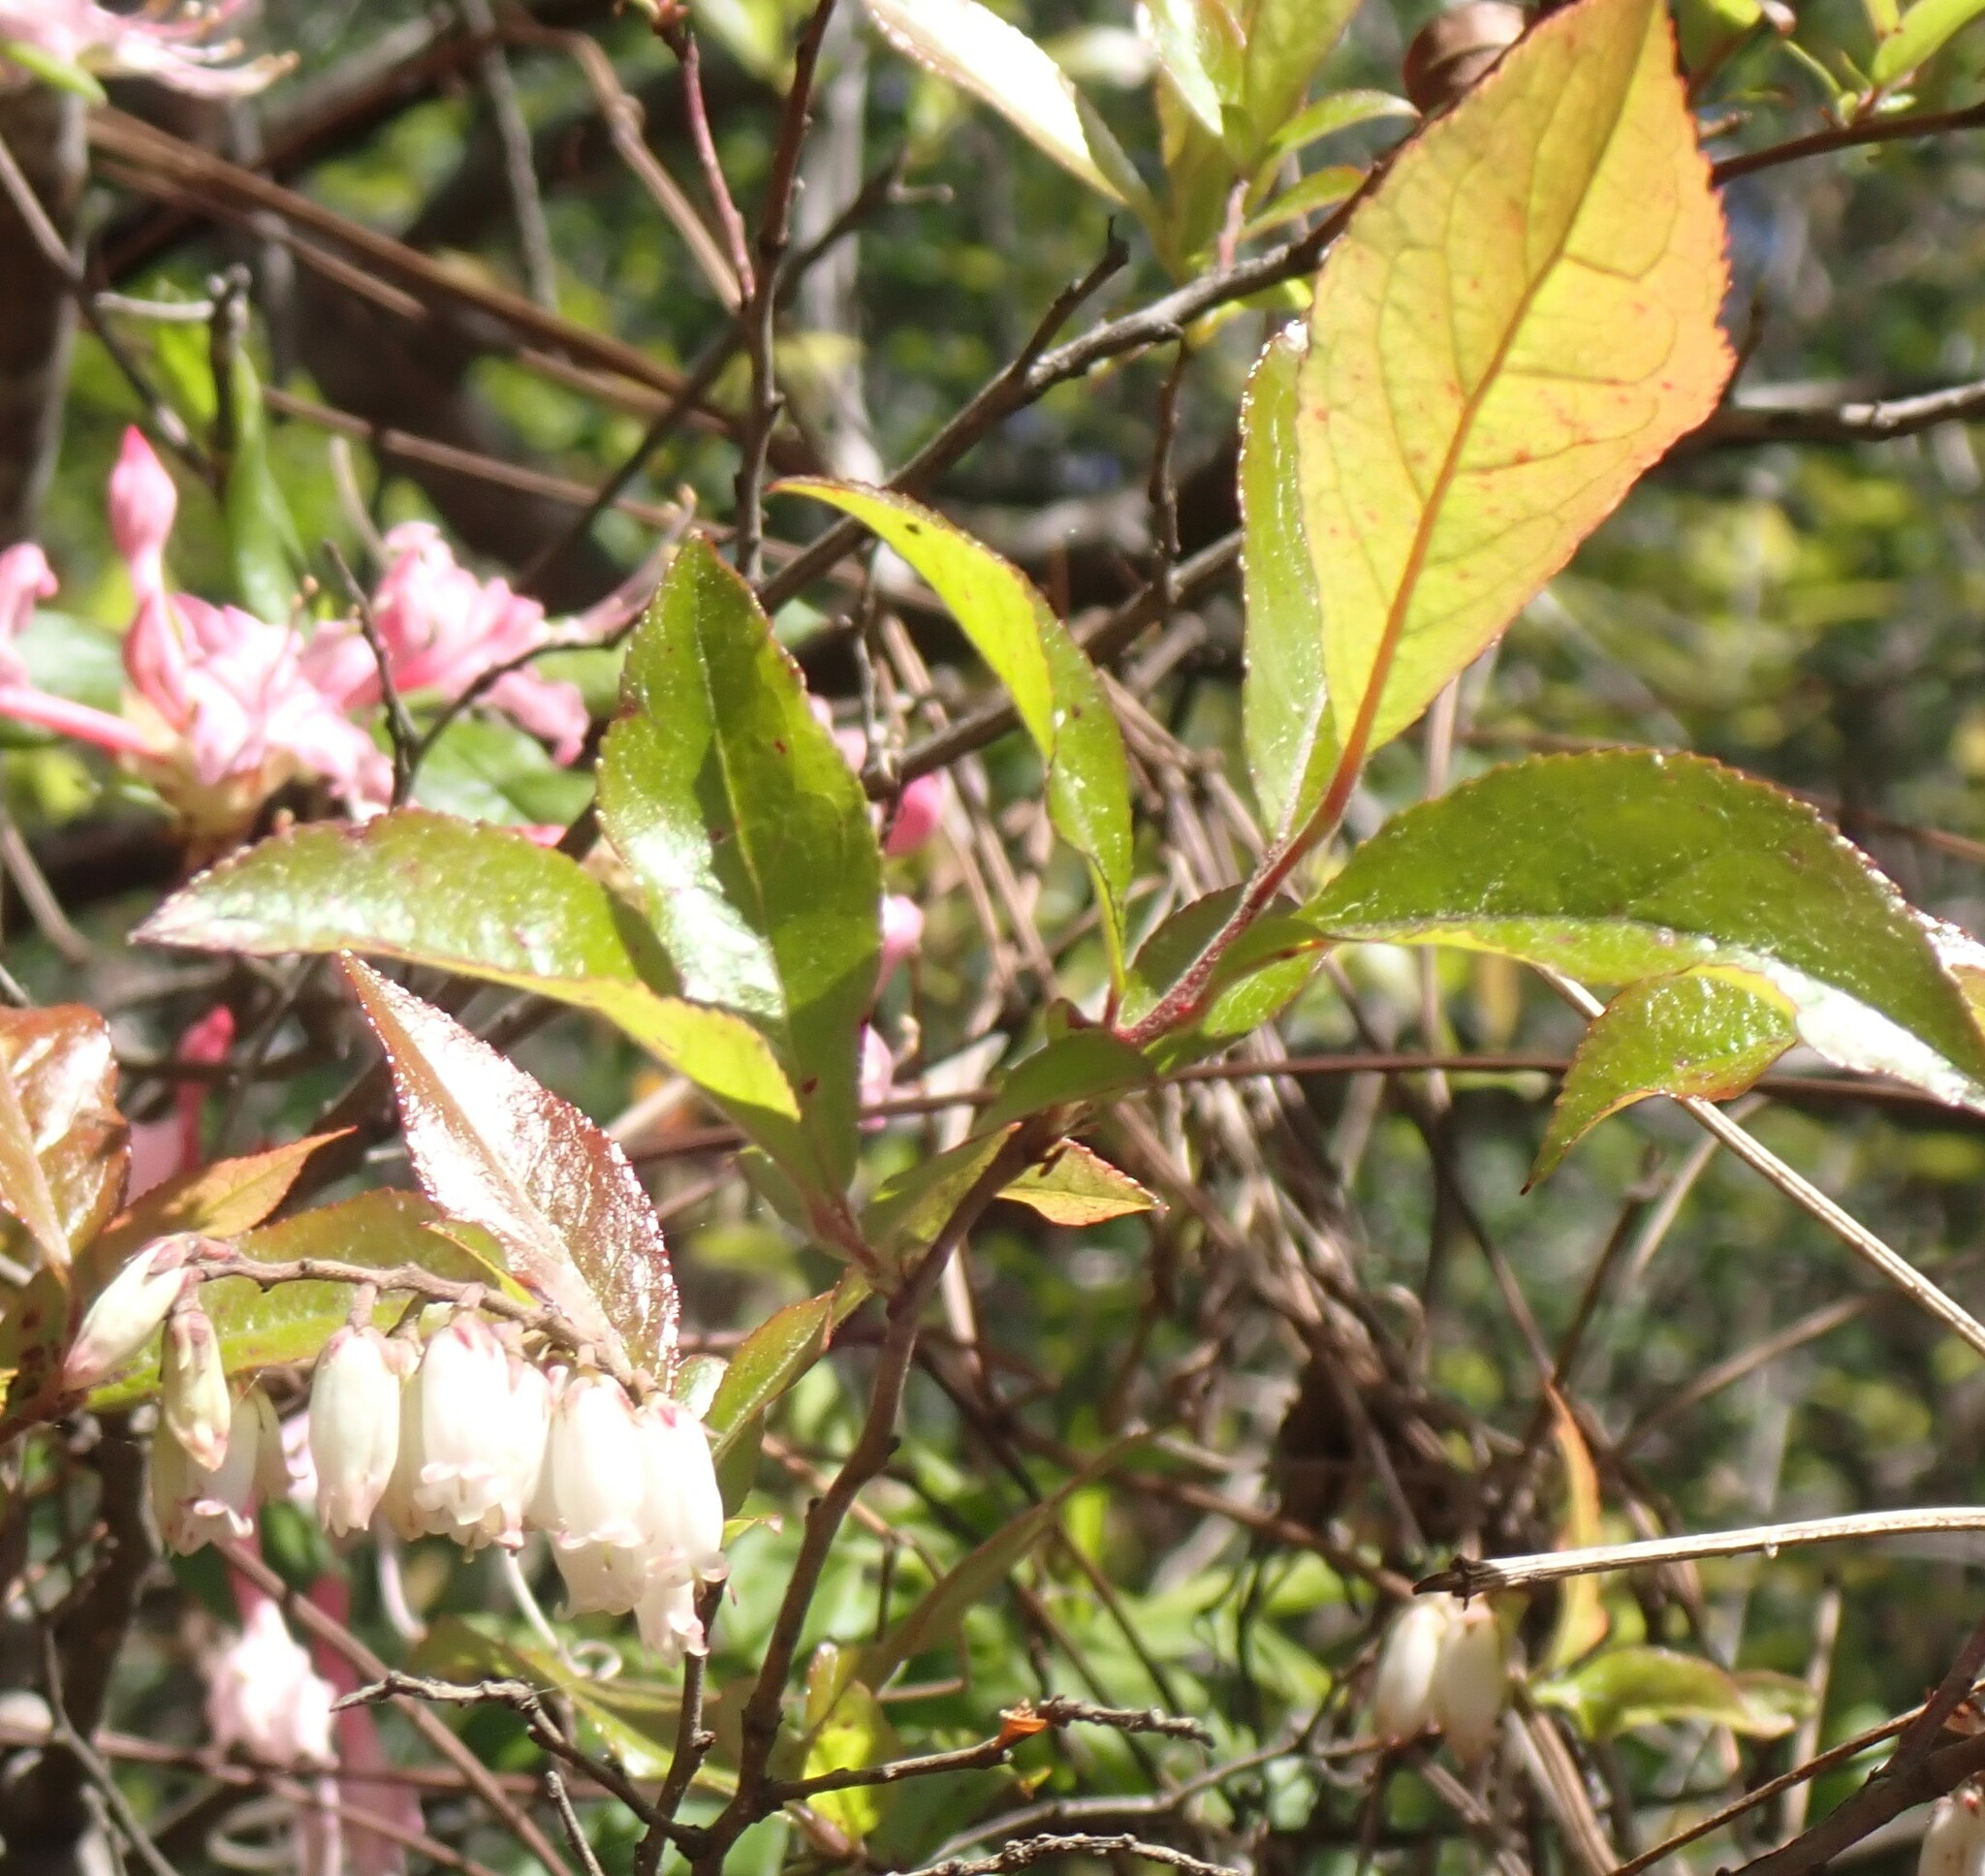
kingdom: Plantae
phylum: Tracheophyta
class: Magnoliopsida
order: Ericales
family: Ericaceae
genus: Eubotrys
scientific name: Eubotrys racemosa
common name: Fetterbush
